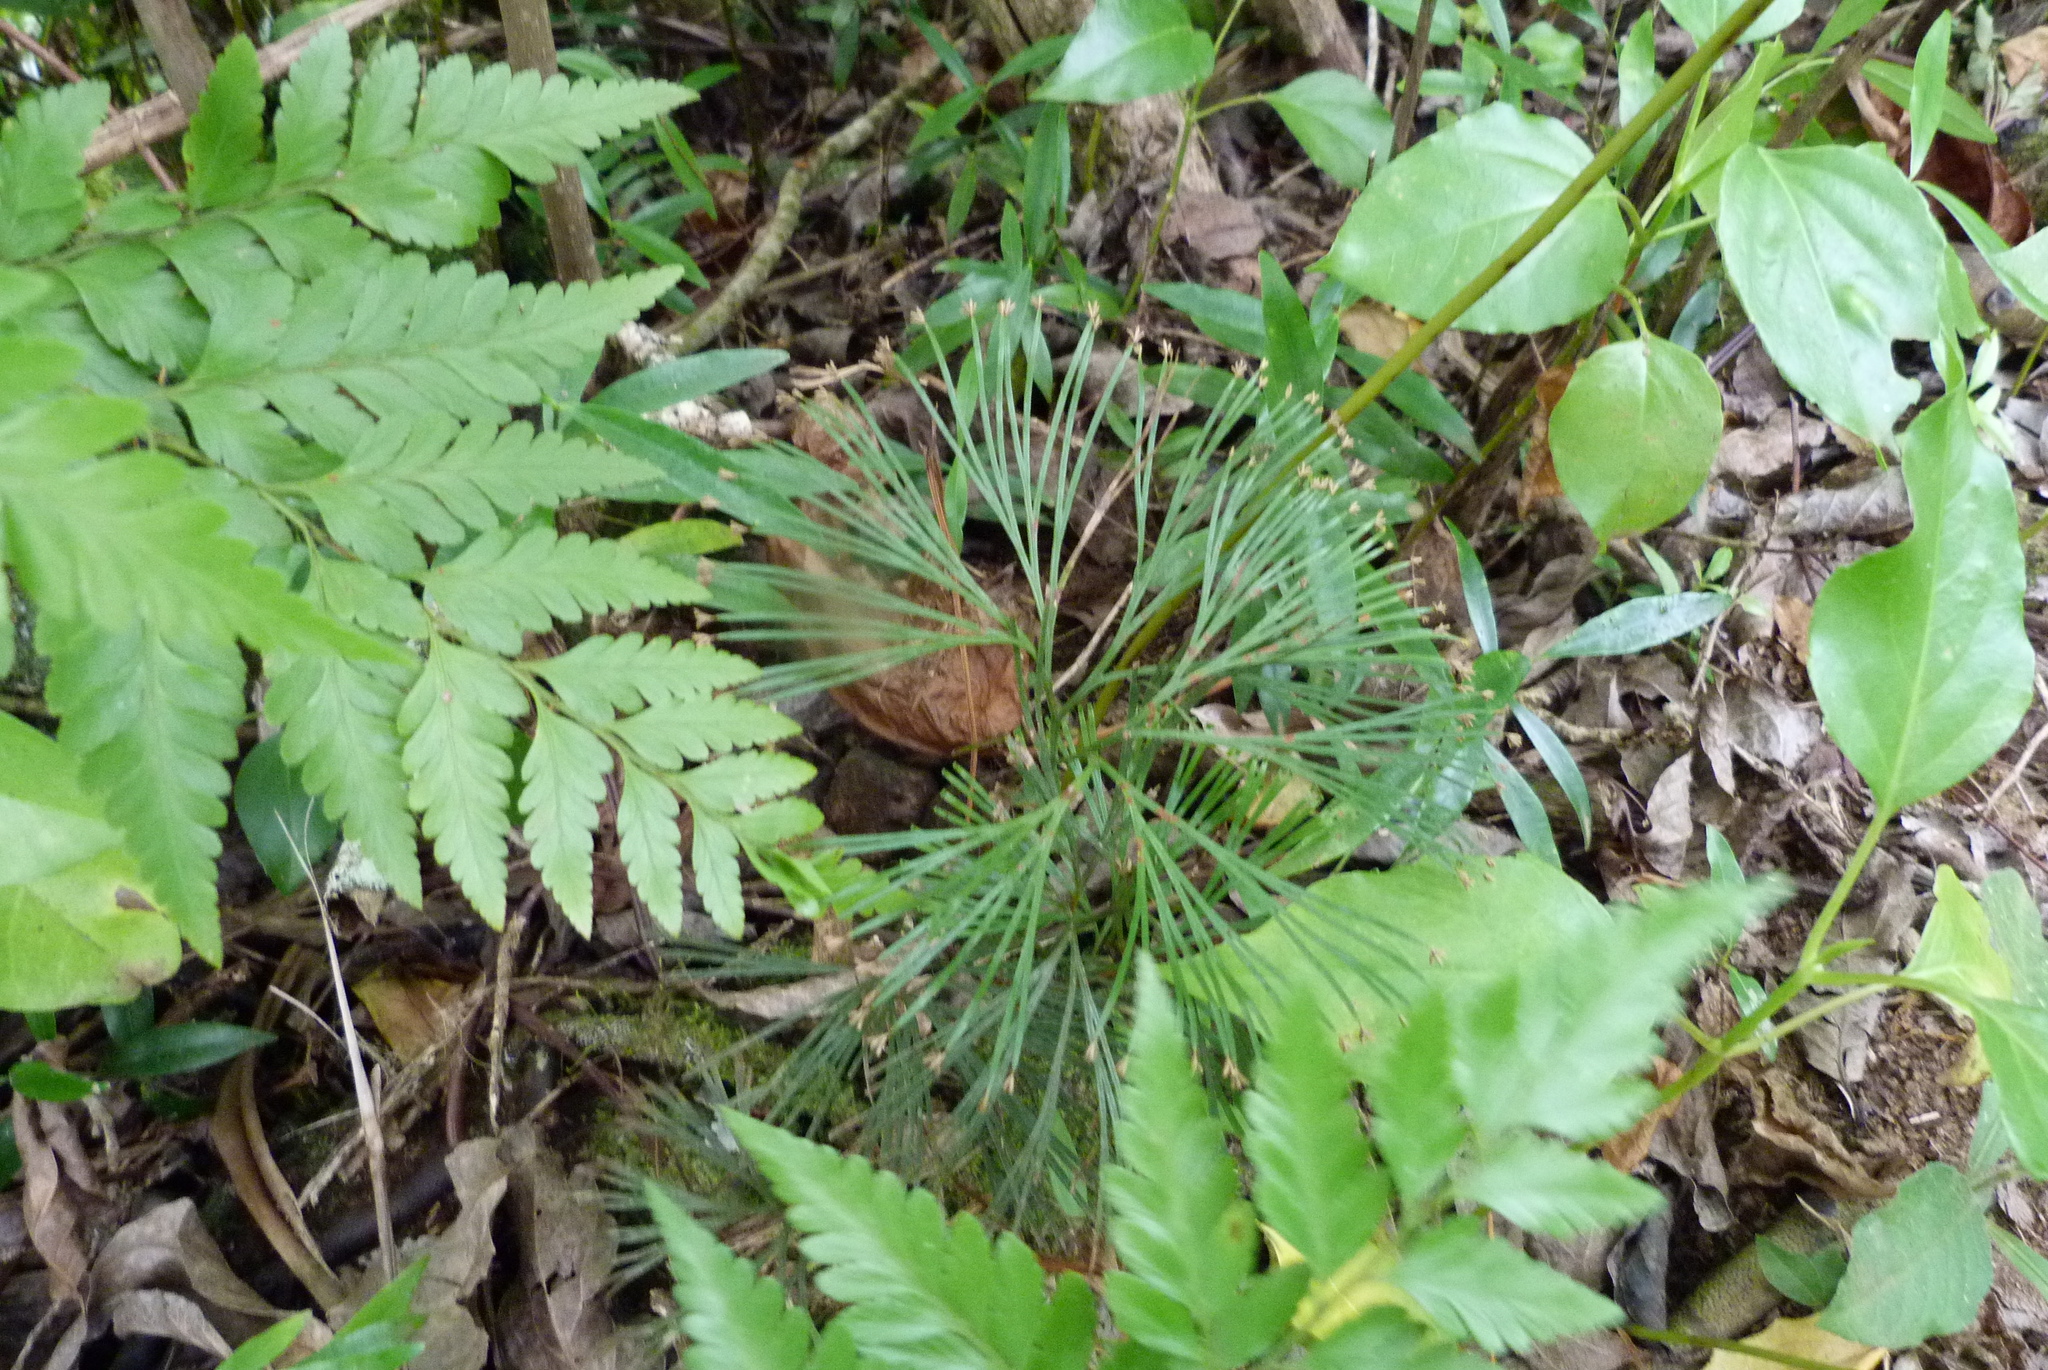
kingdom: Plantae
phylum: Tracheophyta
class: Polypodiopsida
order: Schizaeales
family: Schizaeaceae
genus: Schizaea
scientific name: Schizaea dichotoma
